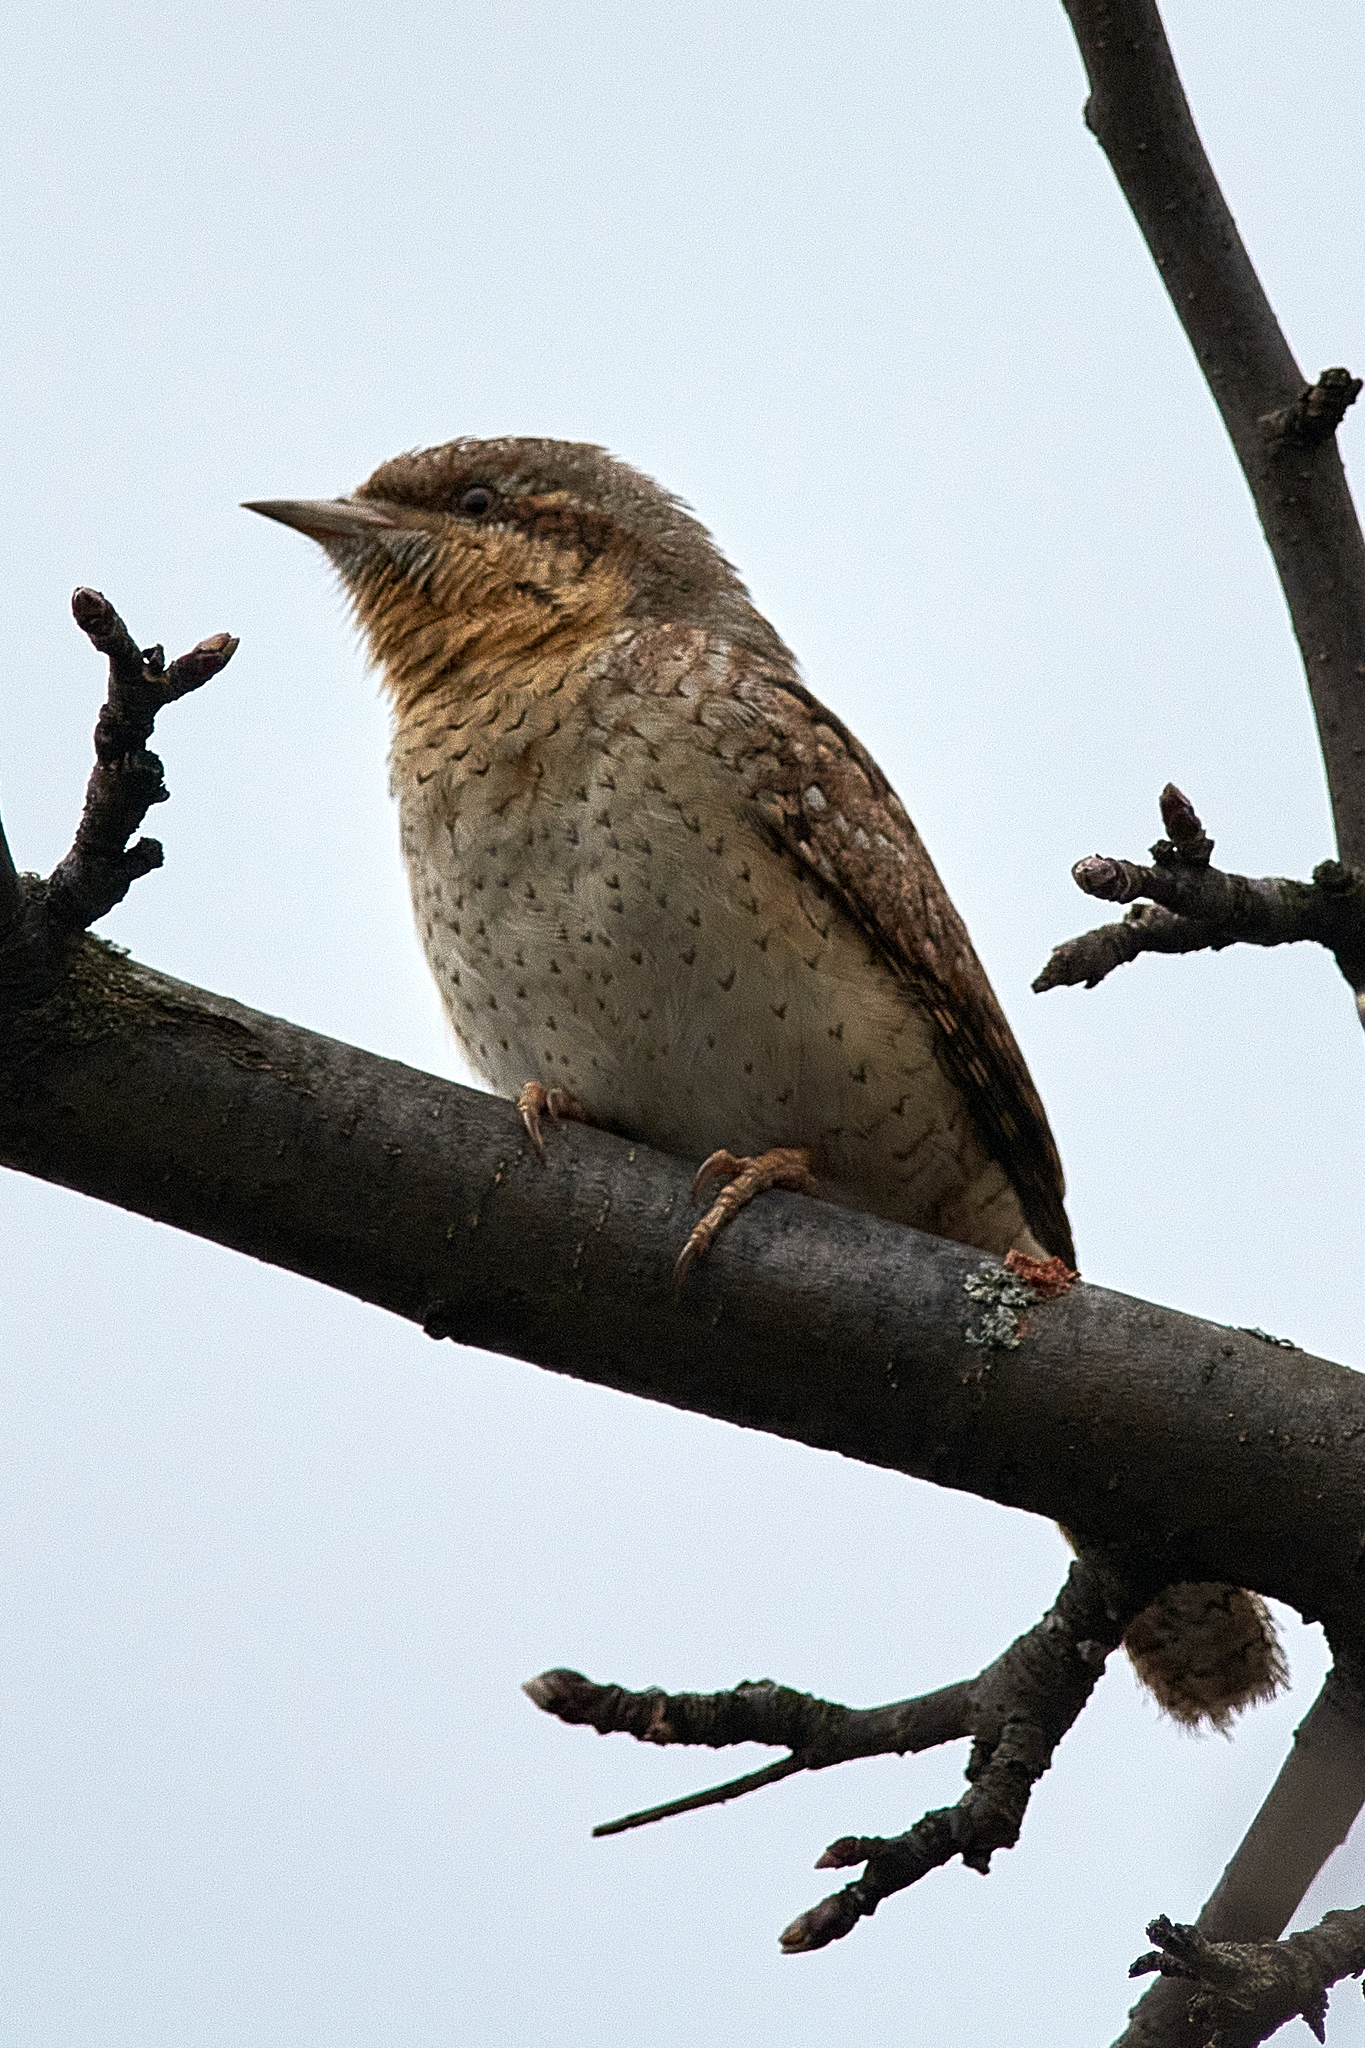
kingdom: Animalia
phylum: Chordata
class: Aves
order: Piciformes
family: Picidae
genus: Jynx
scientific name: Jynx torquilla
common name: Eurasian wryneck
